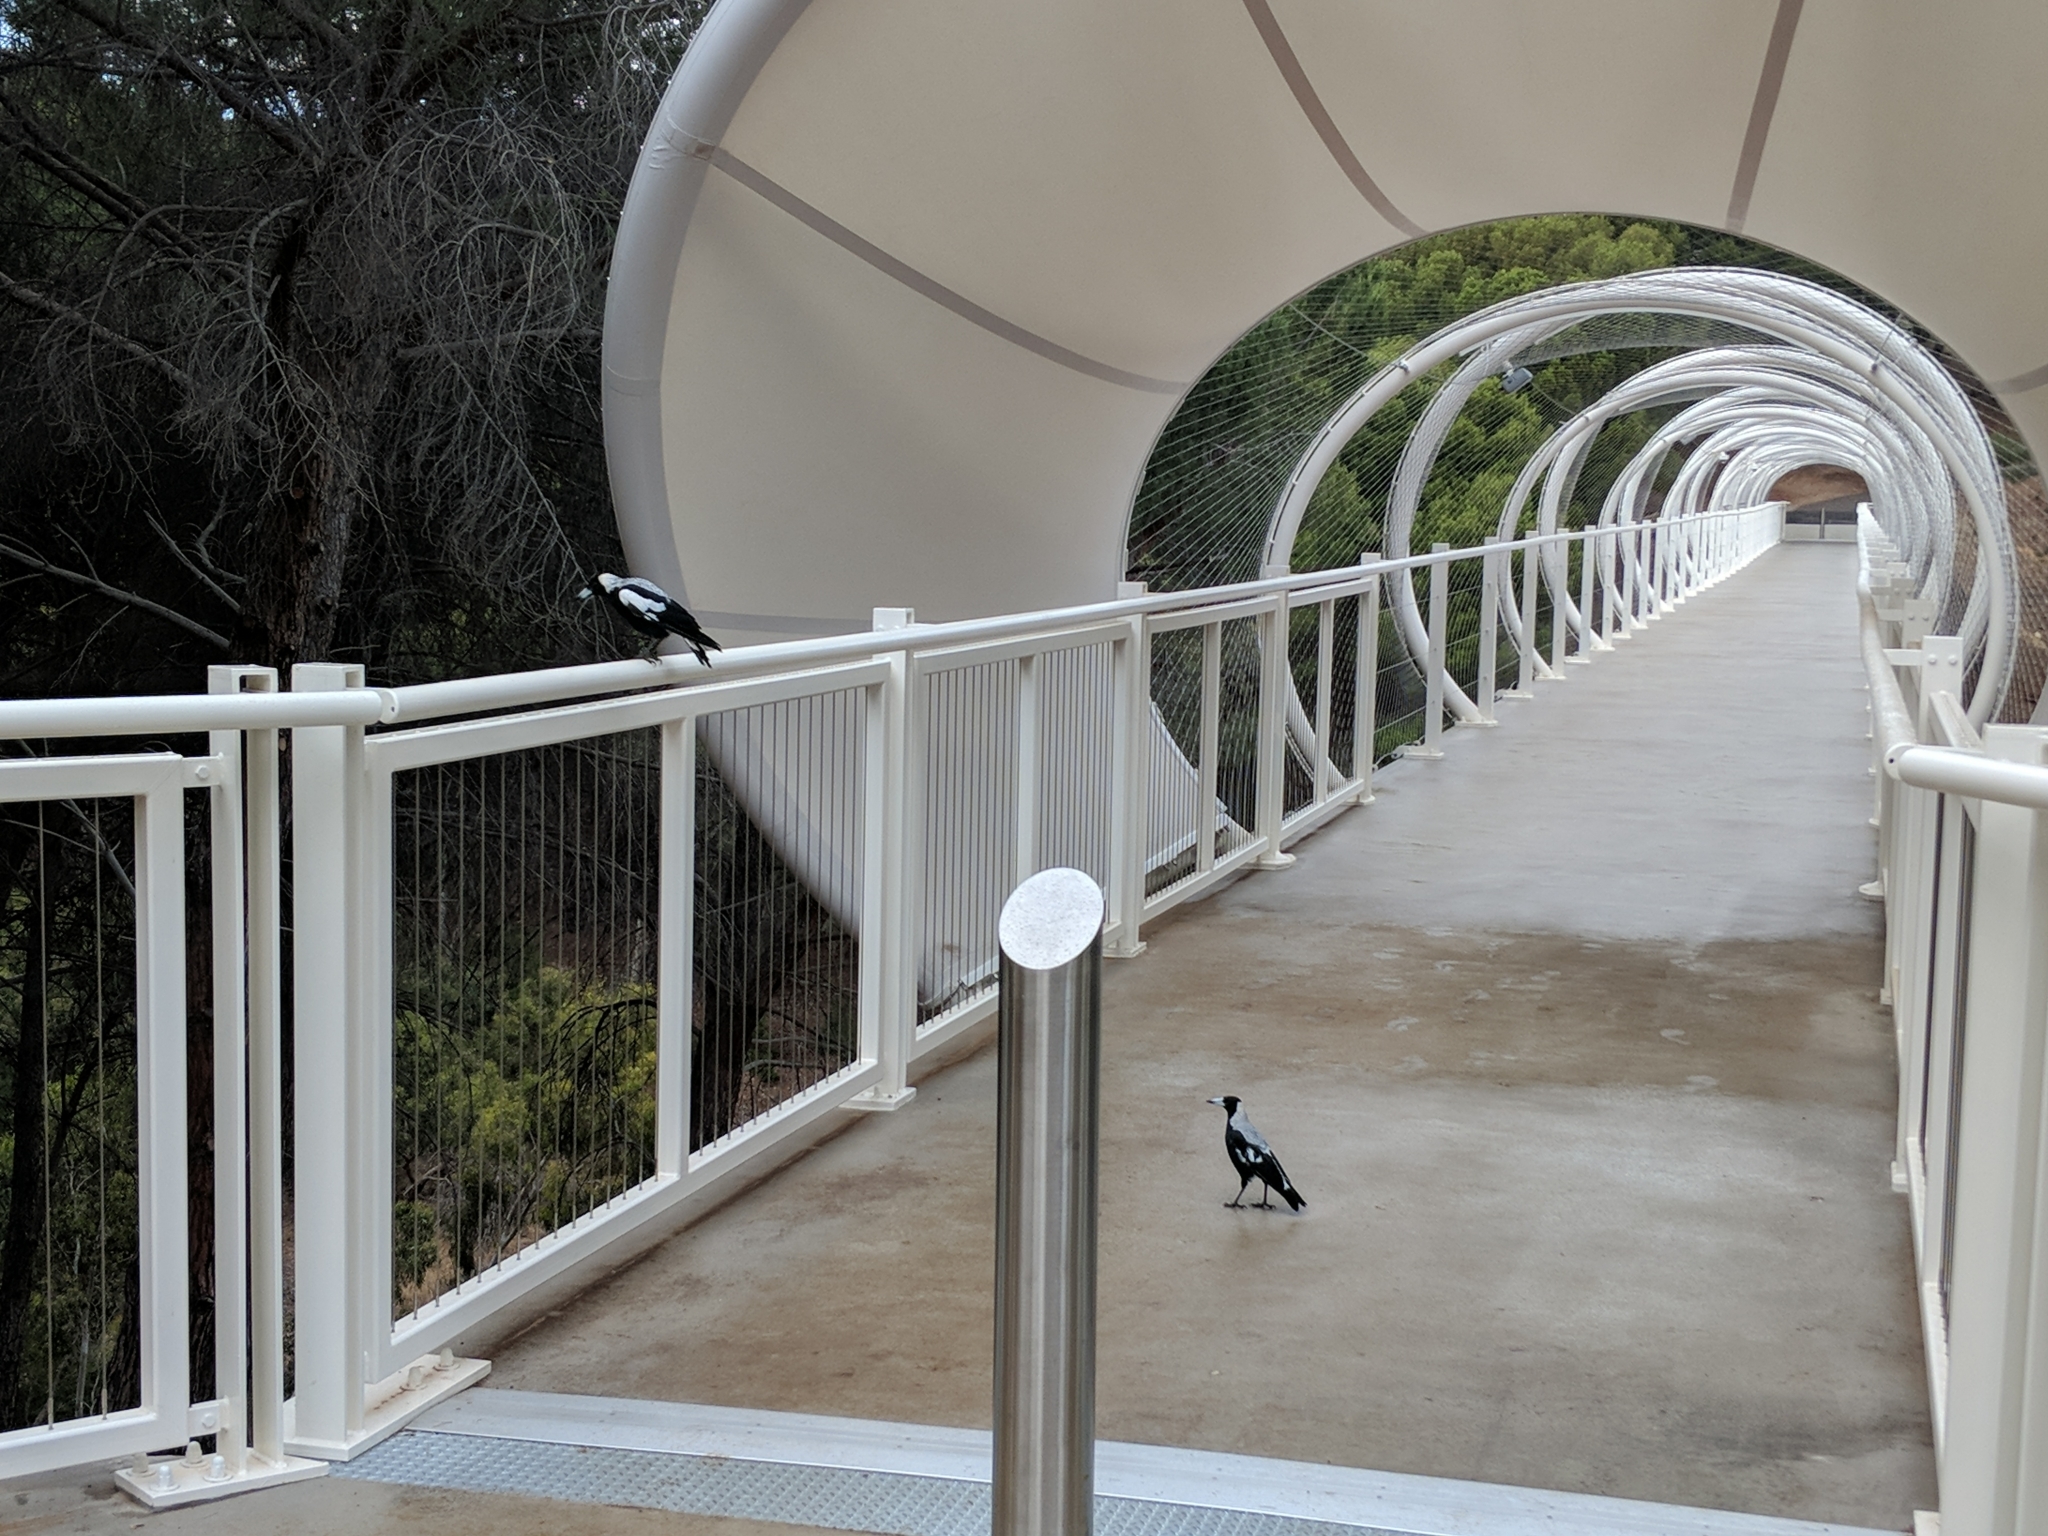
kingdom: Animalia
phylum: Chordata
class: Aves
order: Passeriformes
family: Cracticidae
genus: Gymnorhina
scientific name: Gymnorhina tibicen
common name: Australian magpie
